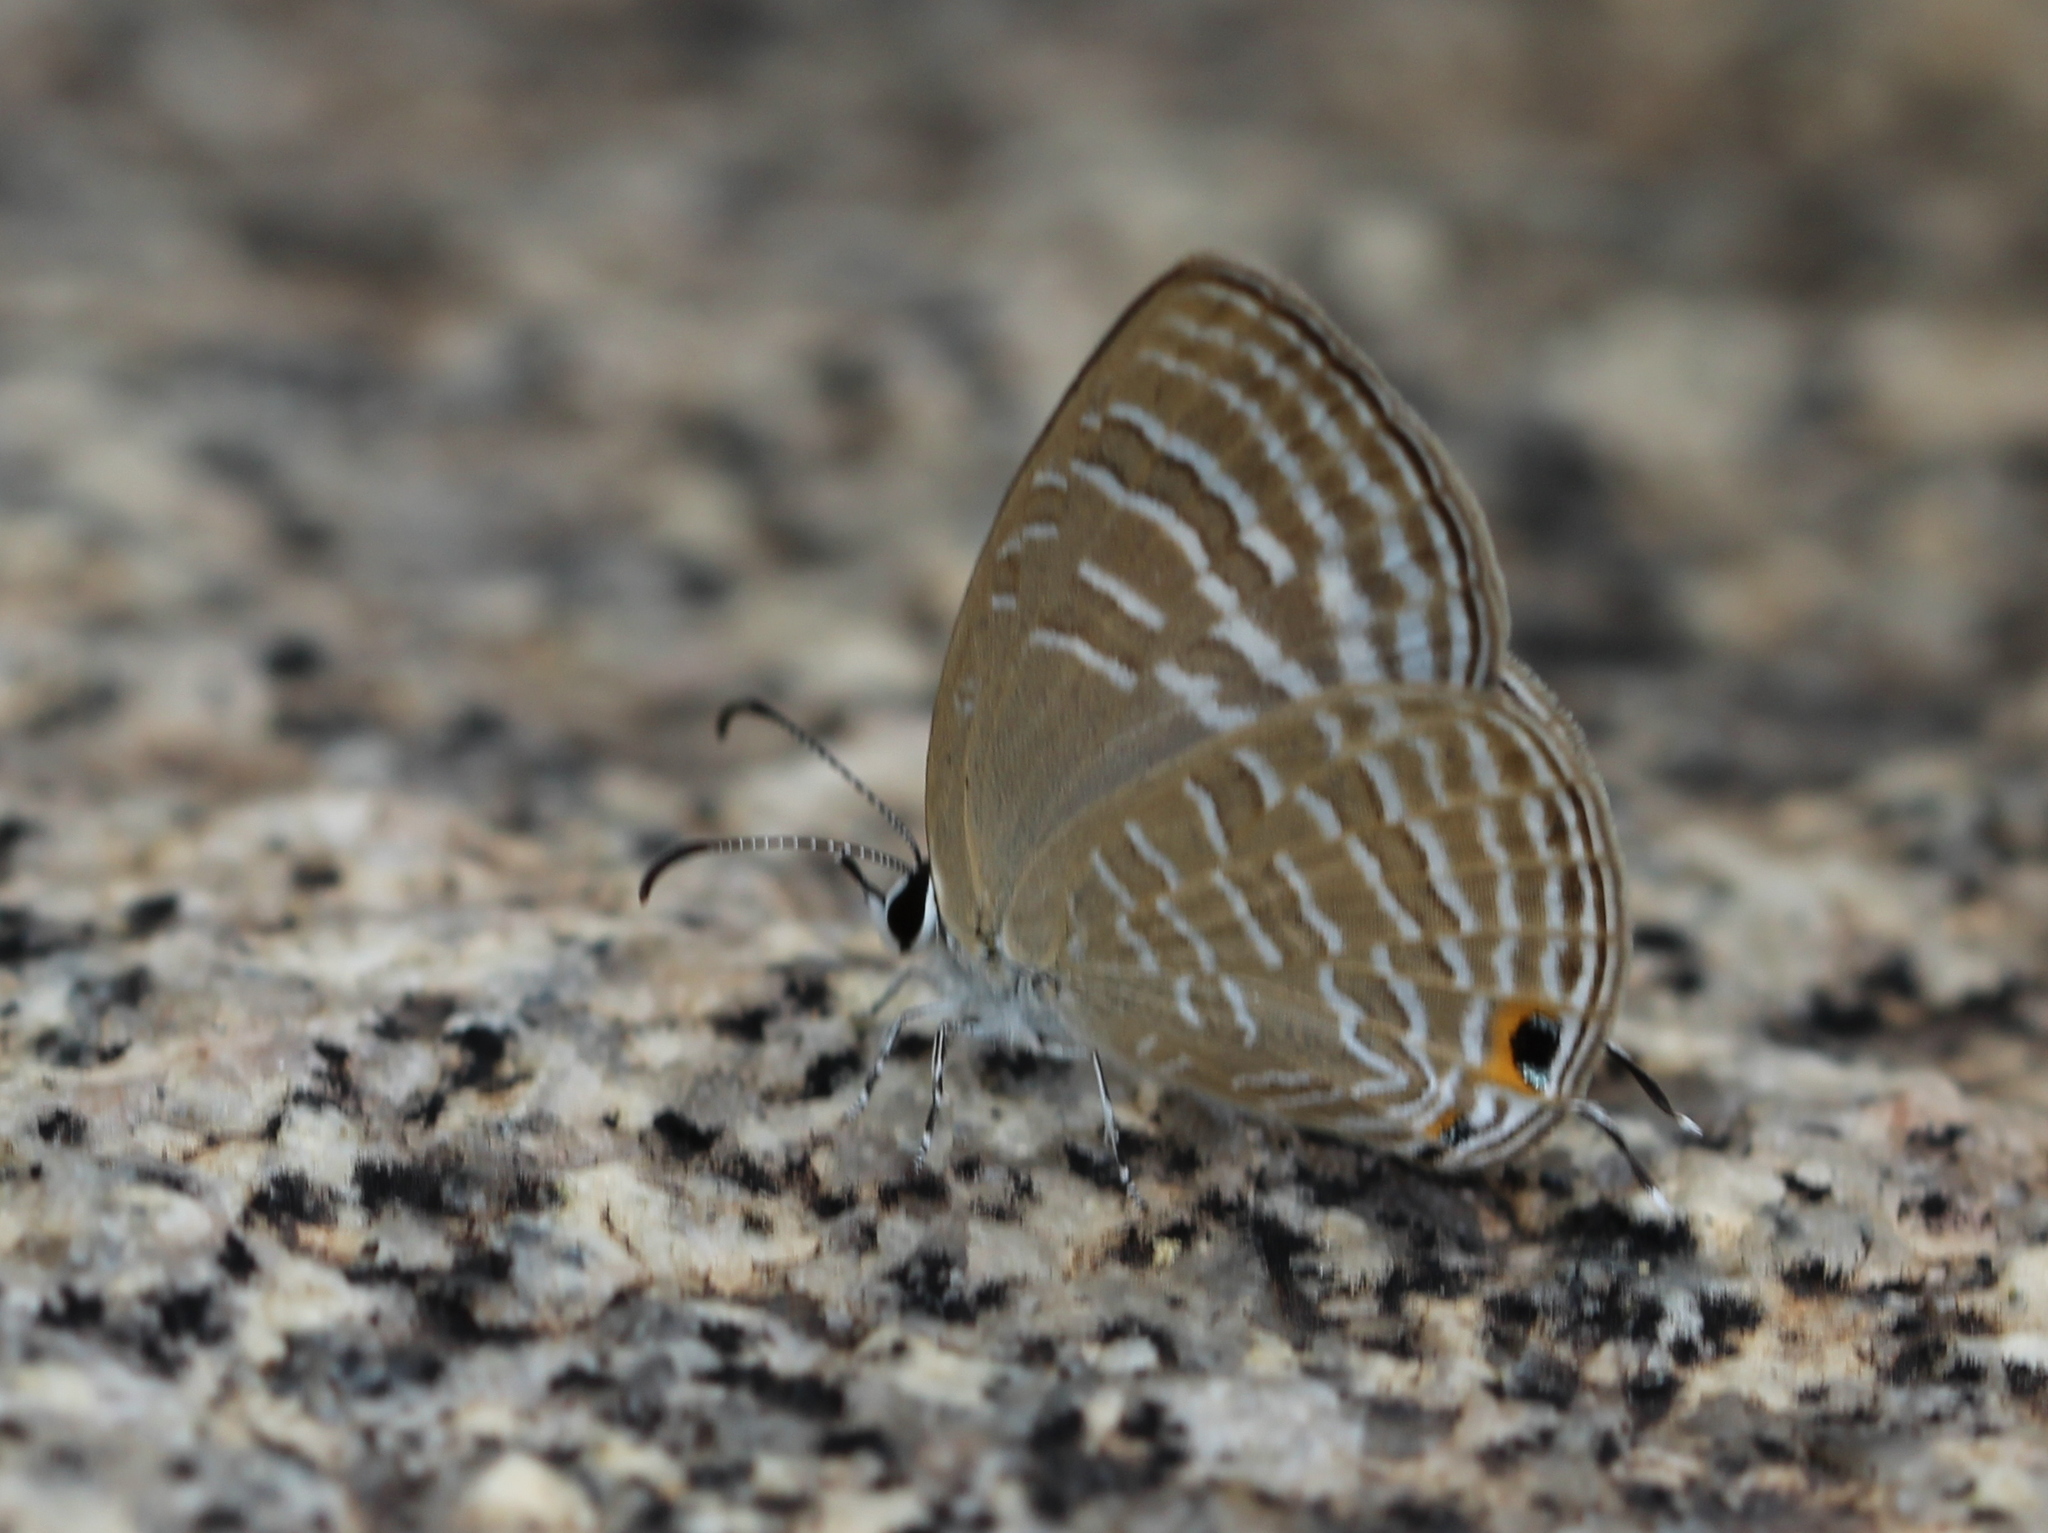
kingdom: Animalia
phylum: Arthropoda
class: Insecta
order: Lepidoptera
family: Lycaenidae
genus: Jamides
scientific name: Jamides celeno
